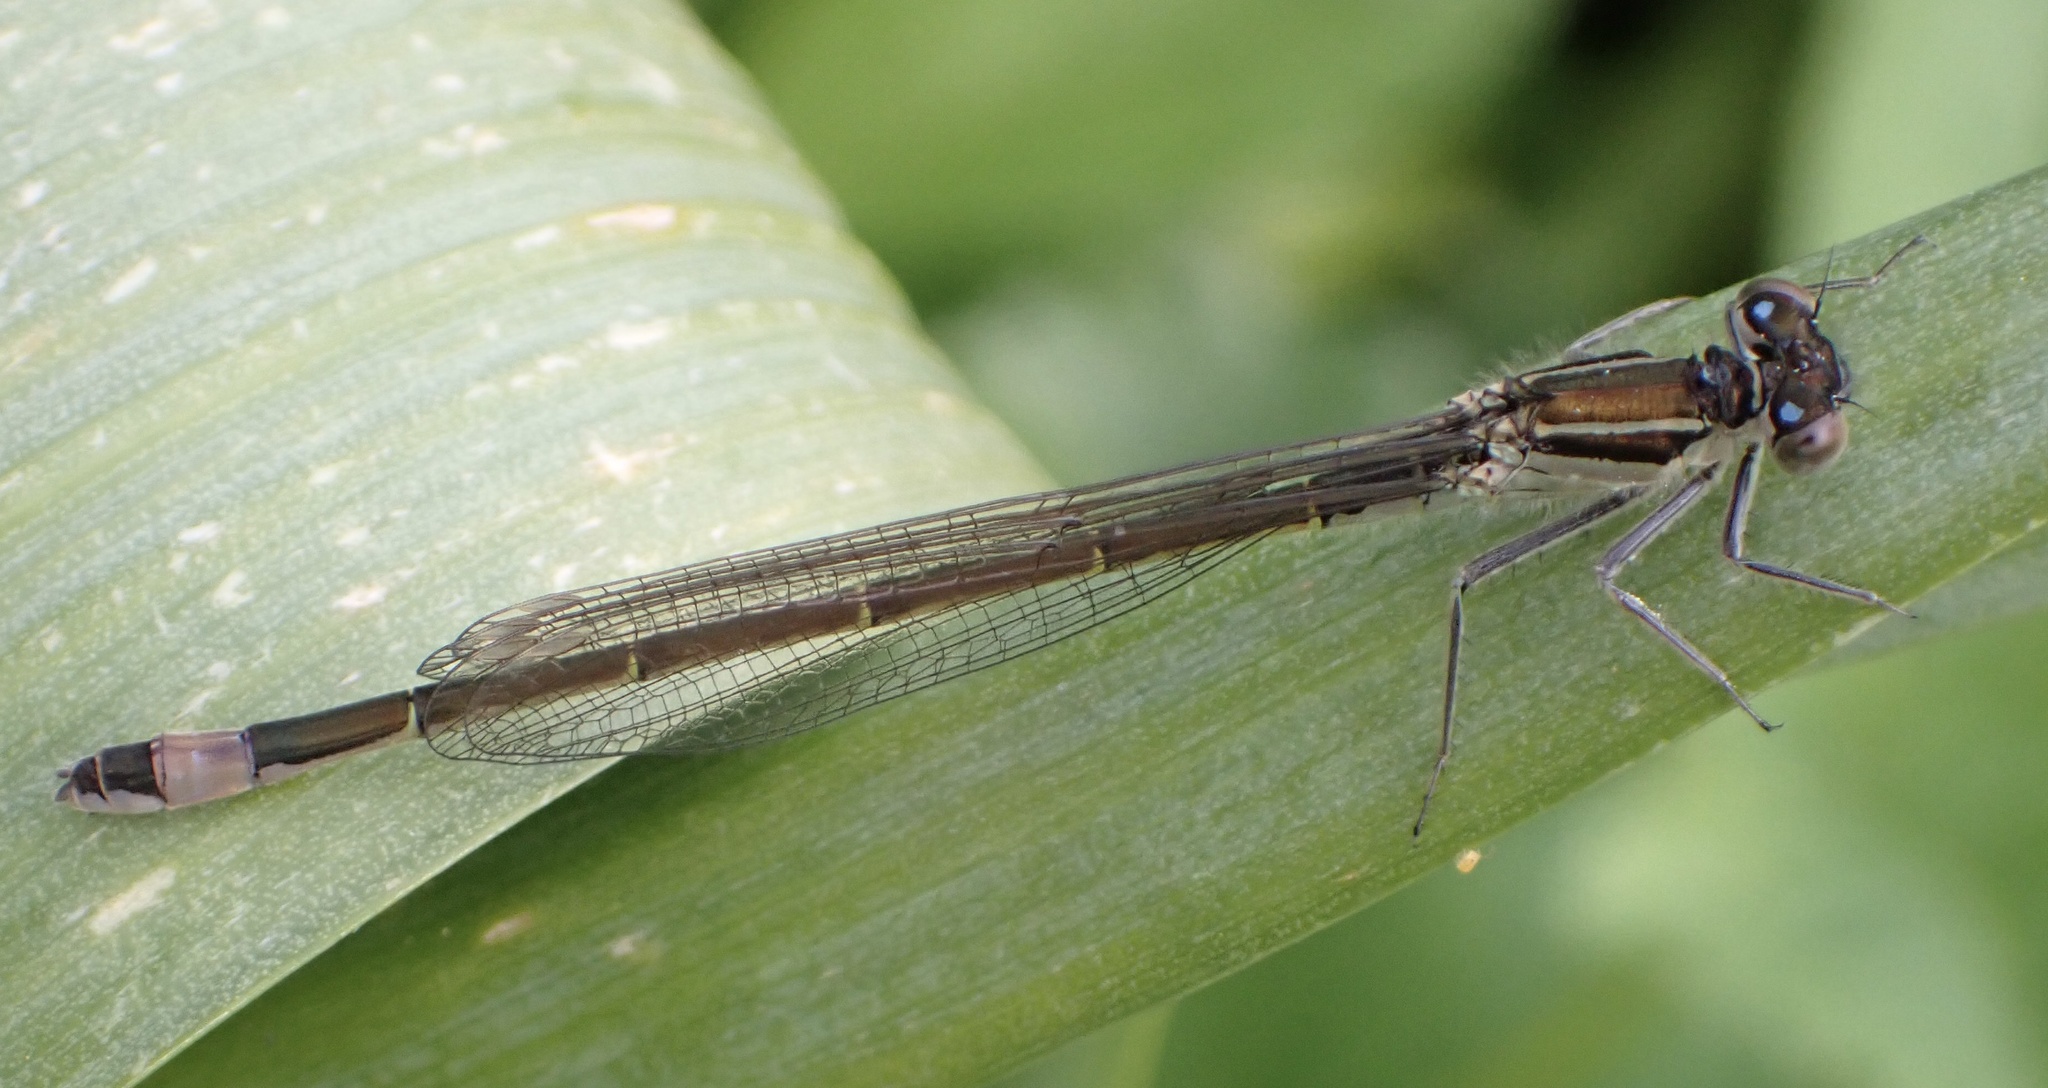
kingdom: Animalia
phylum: Arthropoda
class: Insecta
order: Odonata
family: Coenagrionidae
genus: Ischnura
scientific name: Ischnura elegans
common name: Blue-tailed damselfly
